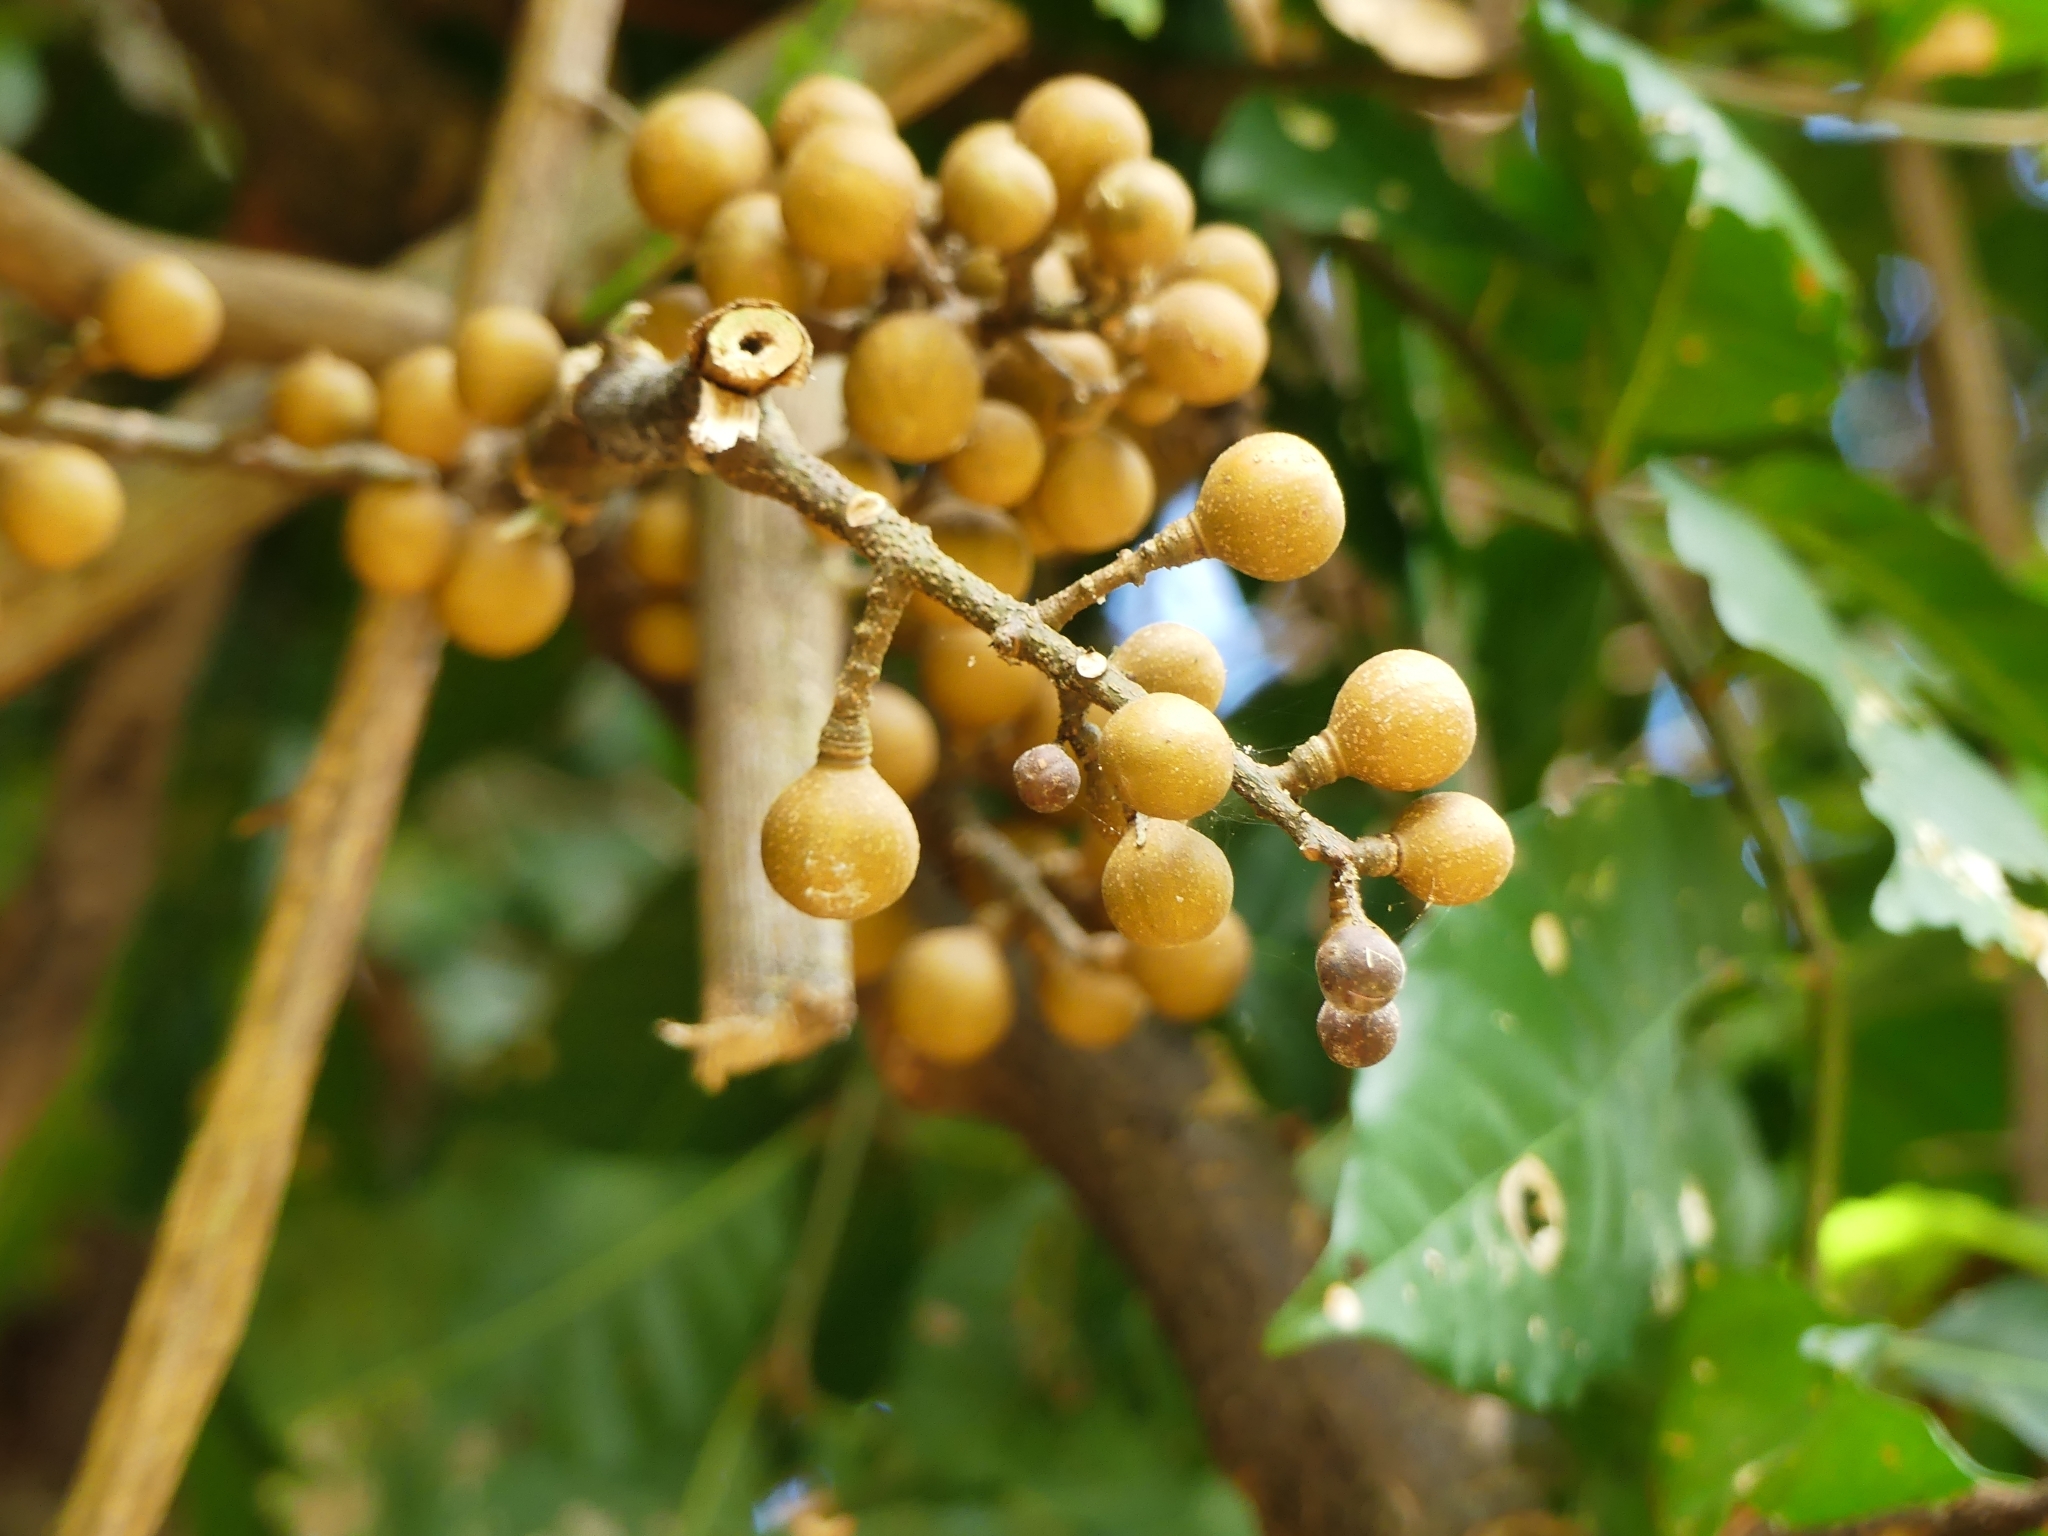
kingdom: Plantae
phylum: Tracheophyta
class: Magnoliopsida
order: Sapindales
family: Meliaceae
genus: Guarea
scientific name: Guarea guidonia
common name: American muskwood
